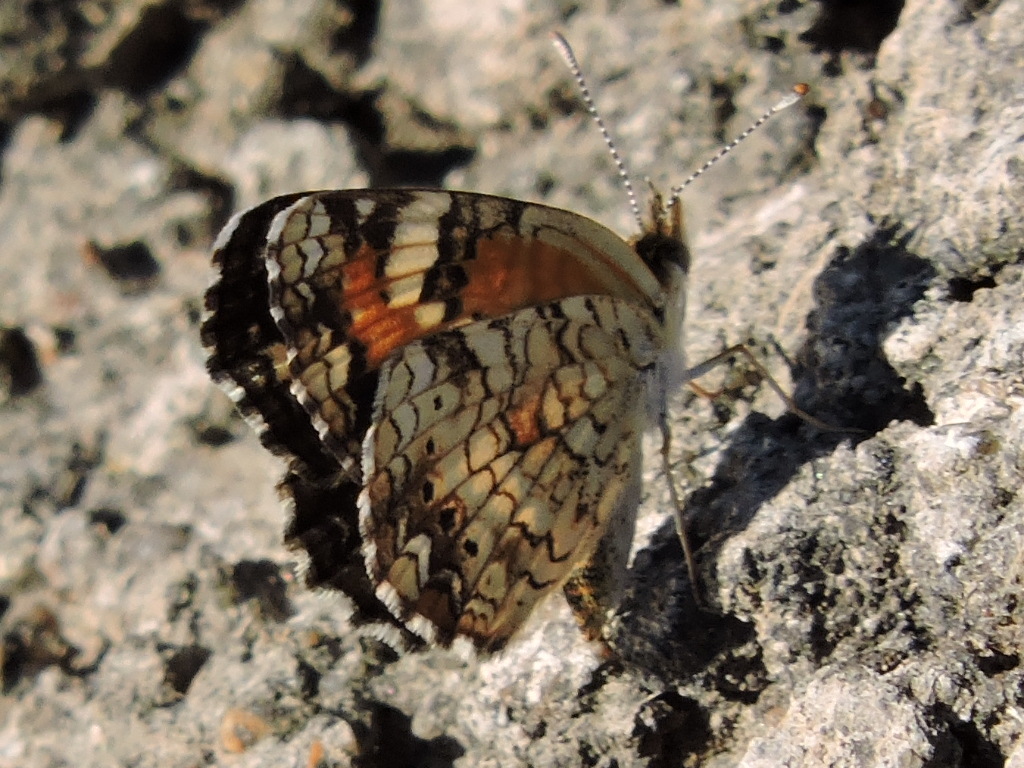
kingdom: Animalia
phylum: Arthropoda
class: Insecta
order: Lepidoptera
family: Nymphalidae
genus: Phyciodes
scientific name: Phyciodes phaon
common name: Phaon crescent
